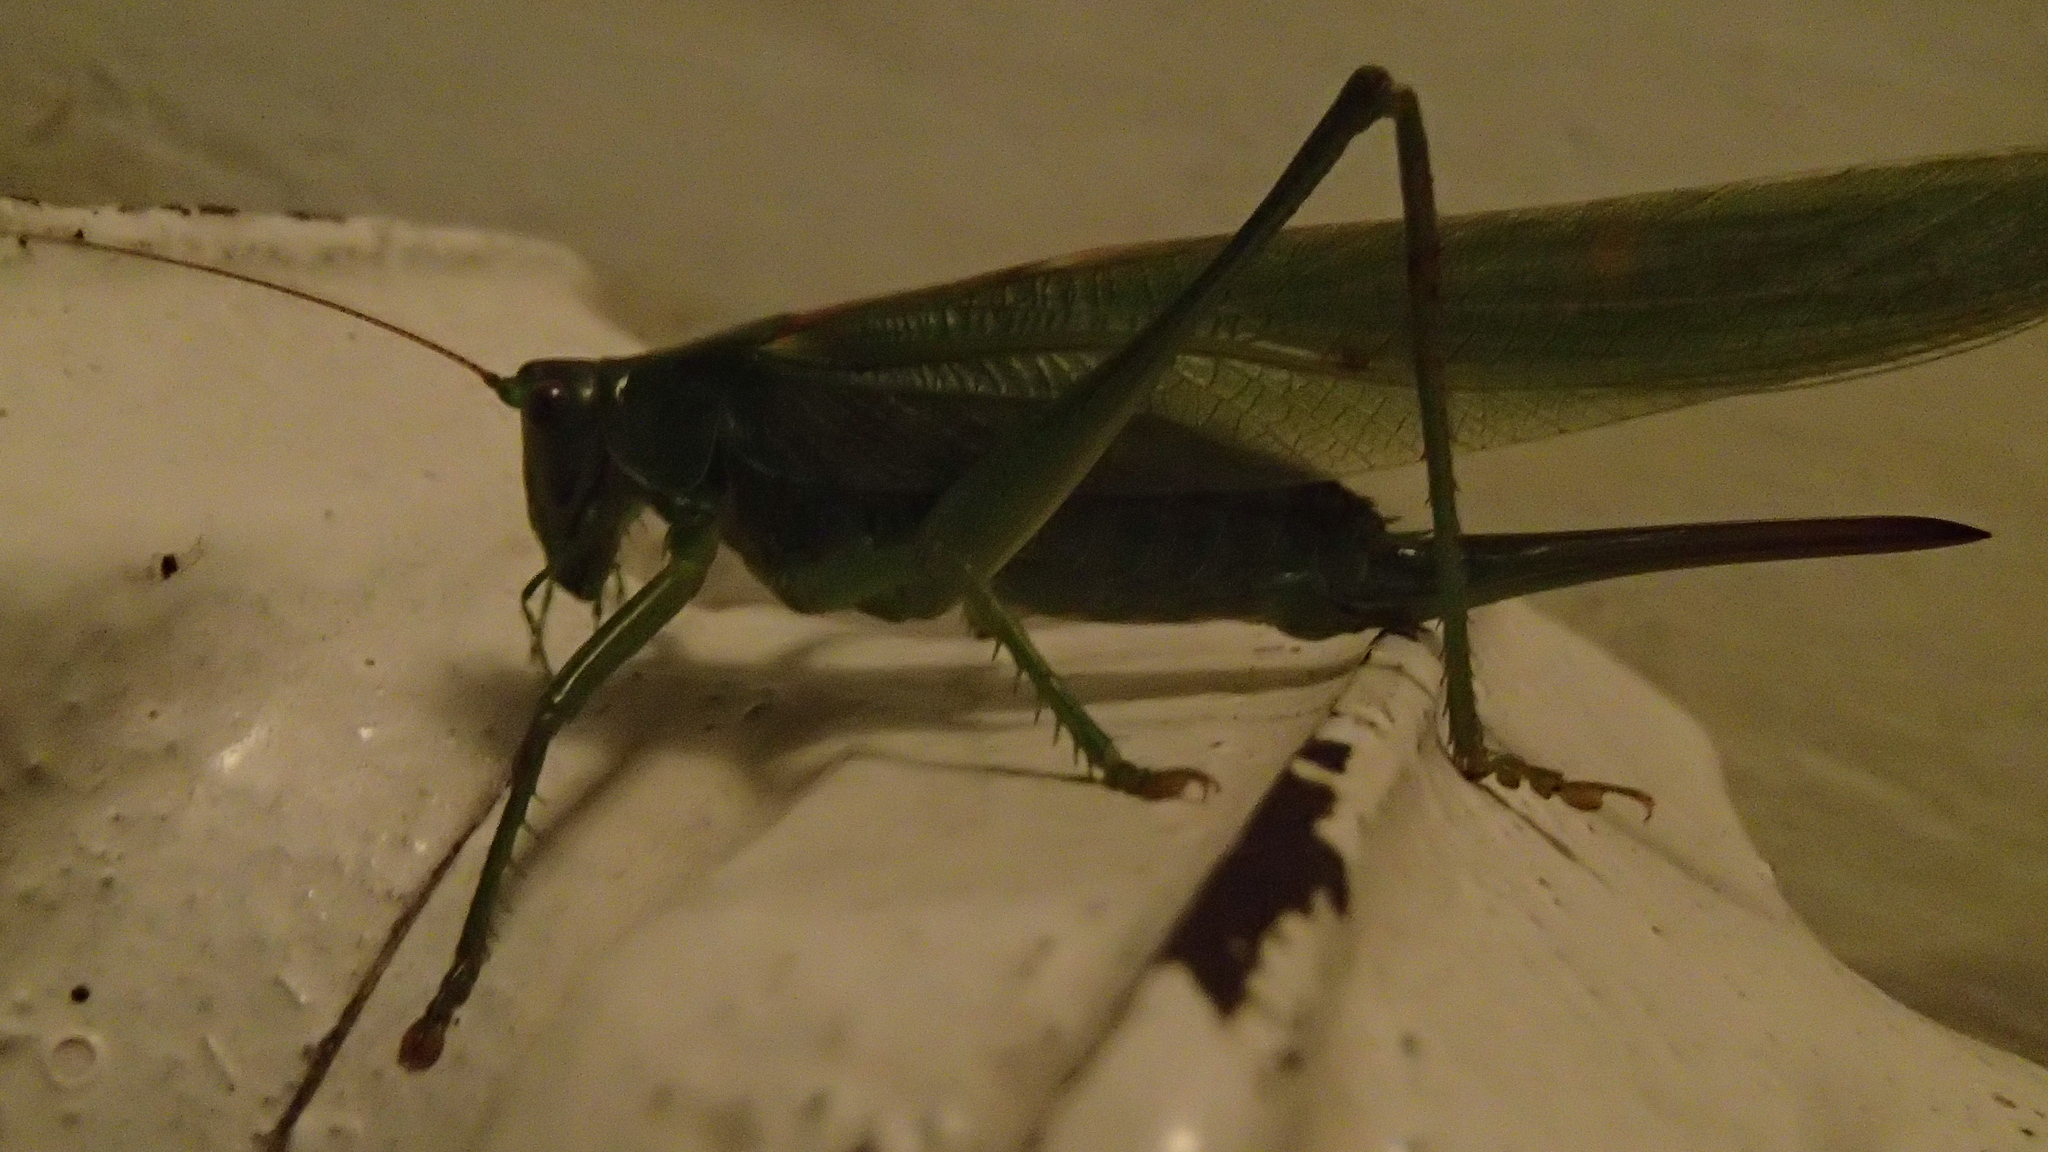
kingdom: Animalia
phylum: Arthropoda
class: Insecta
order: Orthoptera
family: Tettigoniidae
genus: Tettigonia
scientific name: Tettigonia viridissima
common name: Great green bush-cricket
